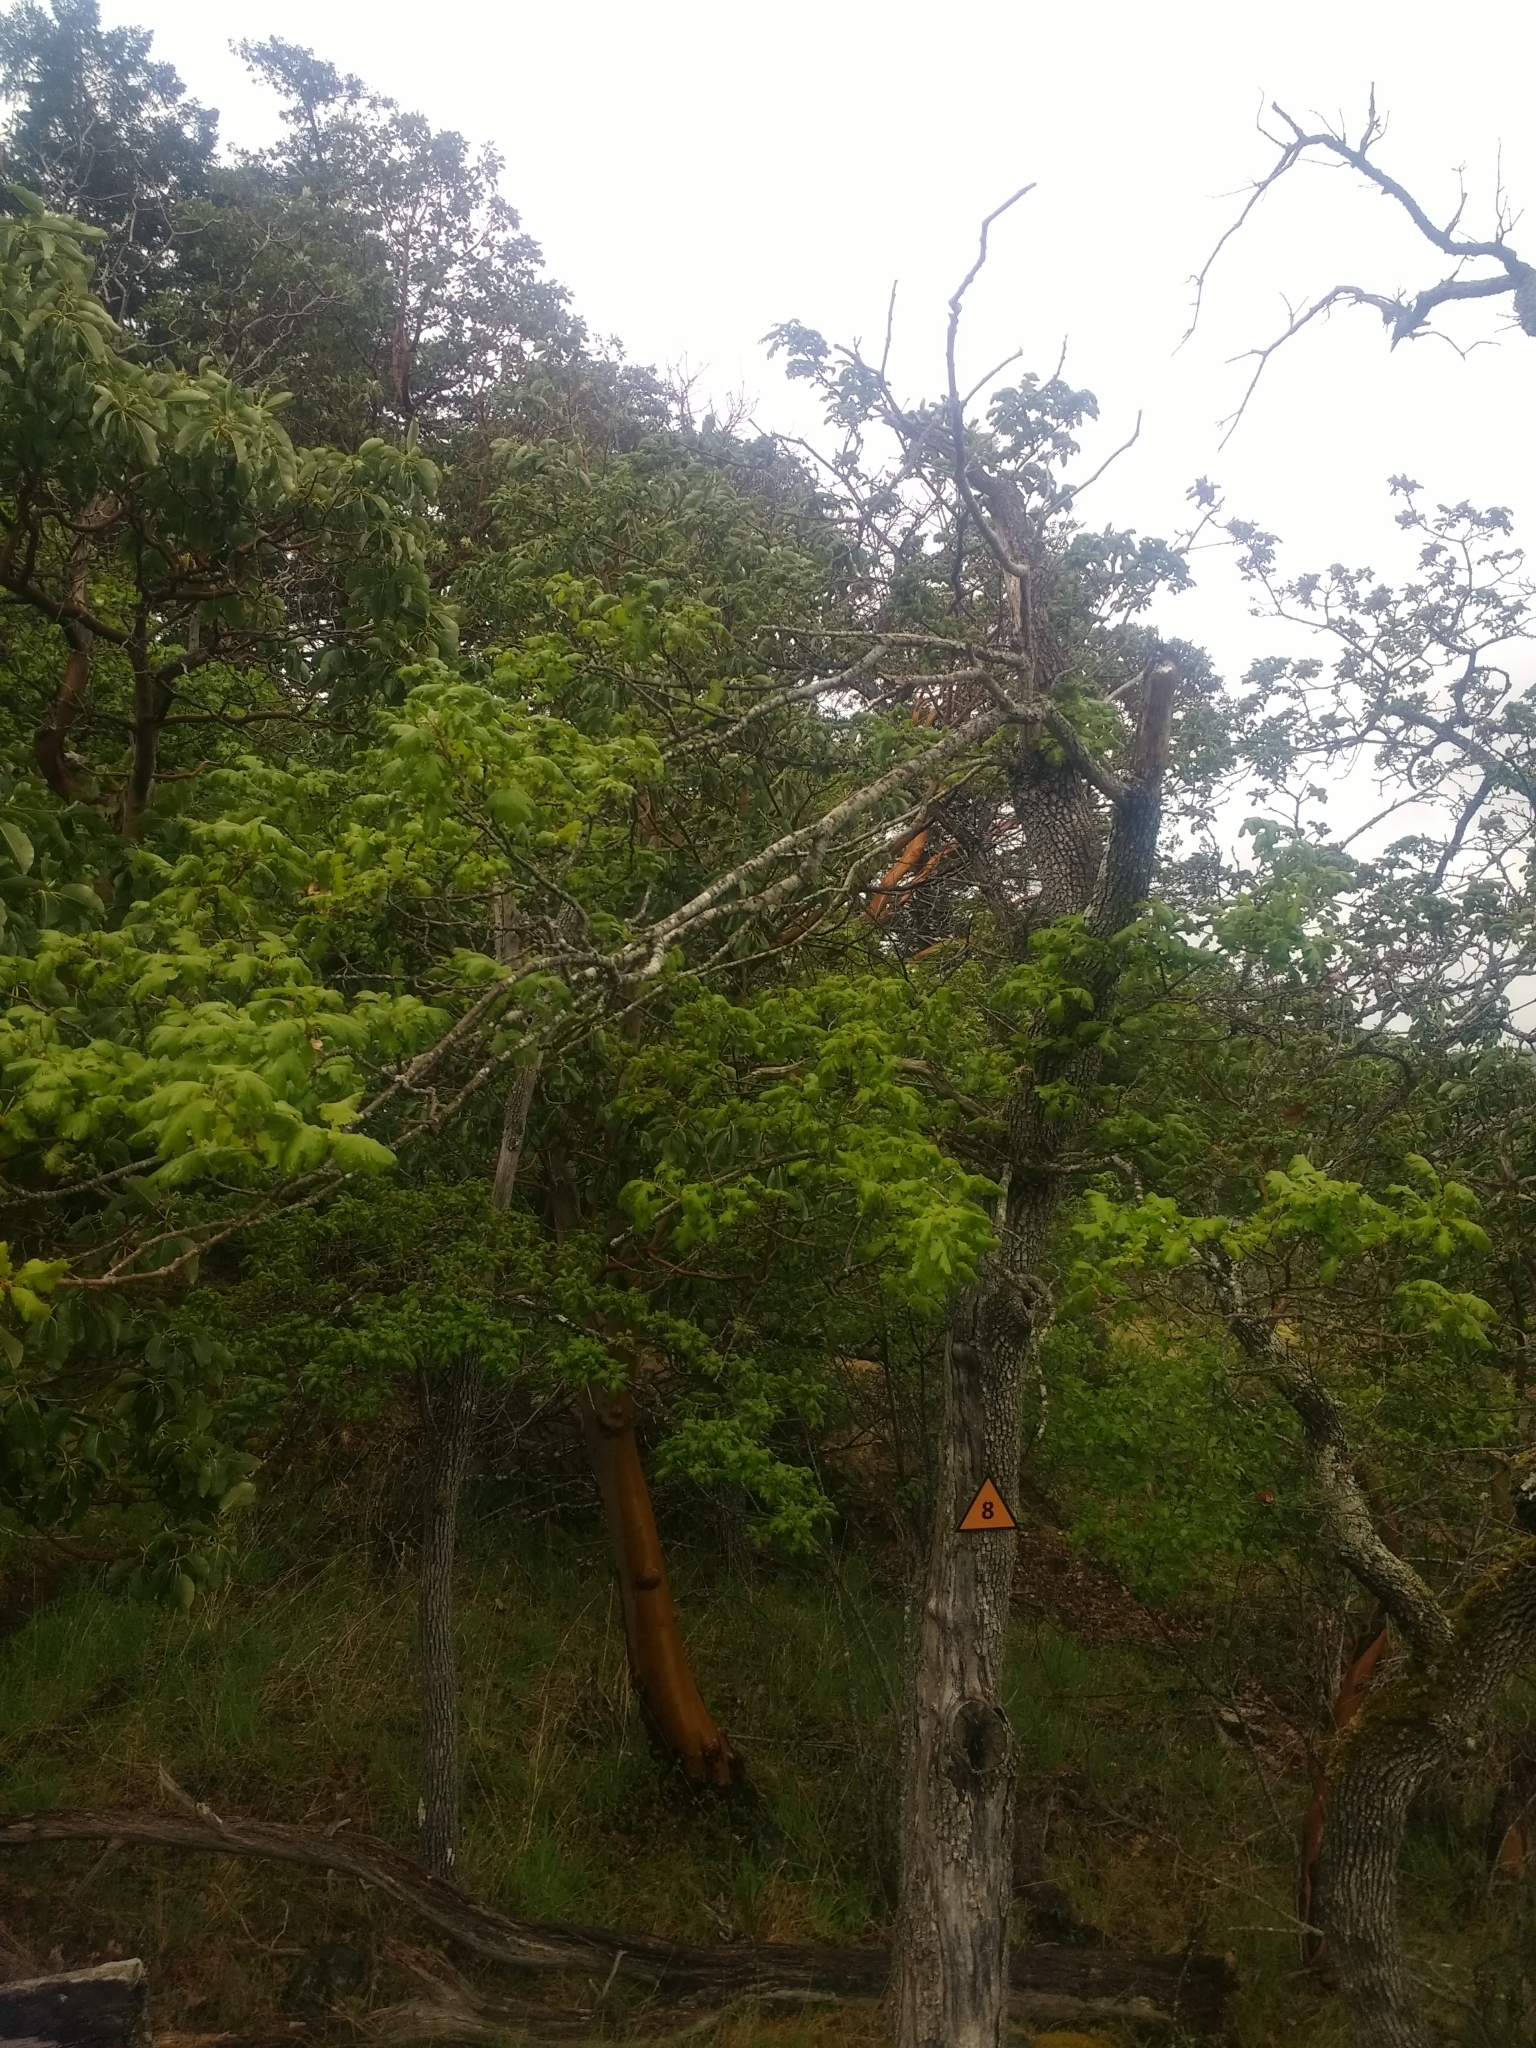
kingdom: Plantae
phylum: Tracheophyta
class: Magnoliopsida
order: Fagales
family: Fagaceae
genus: Quercus
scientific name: Quercus garryana
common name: Garry oak
